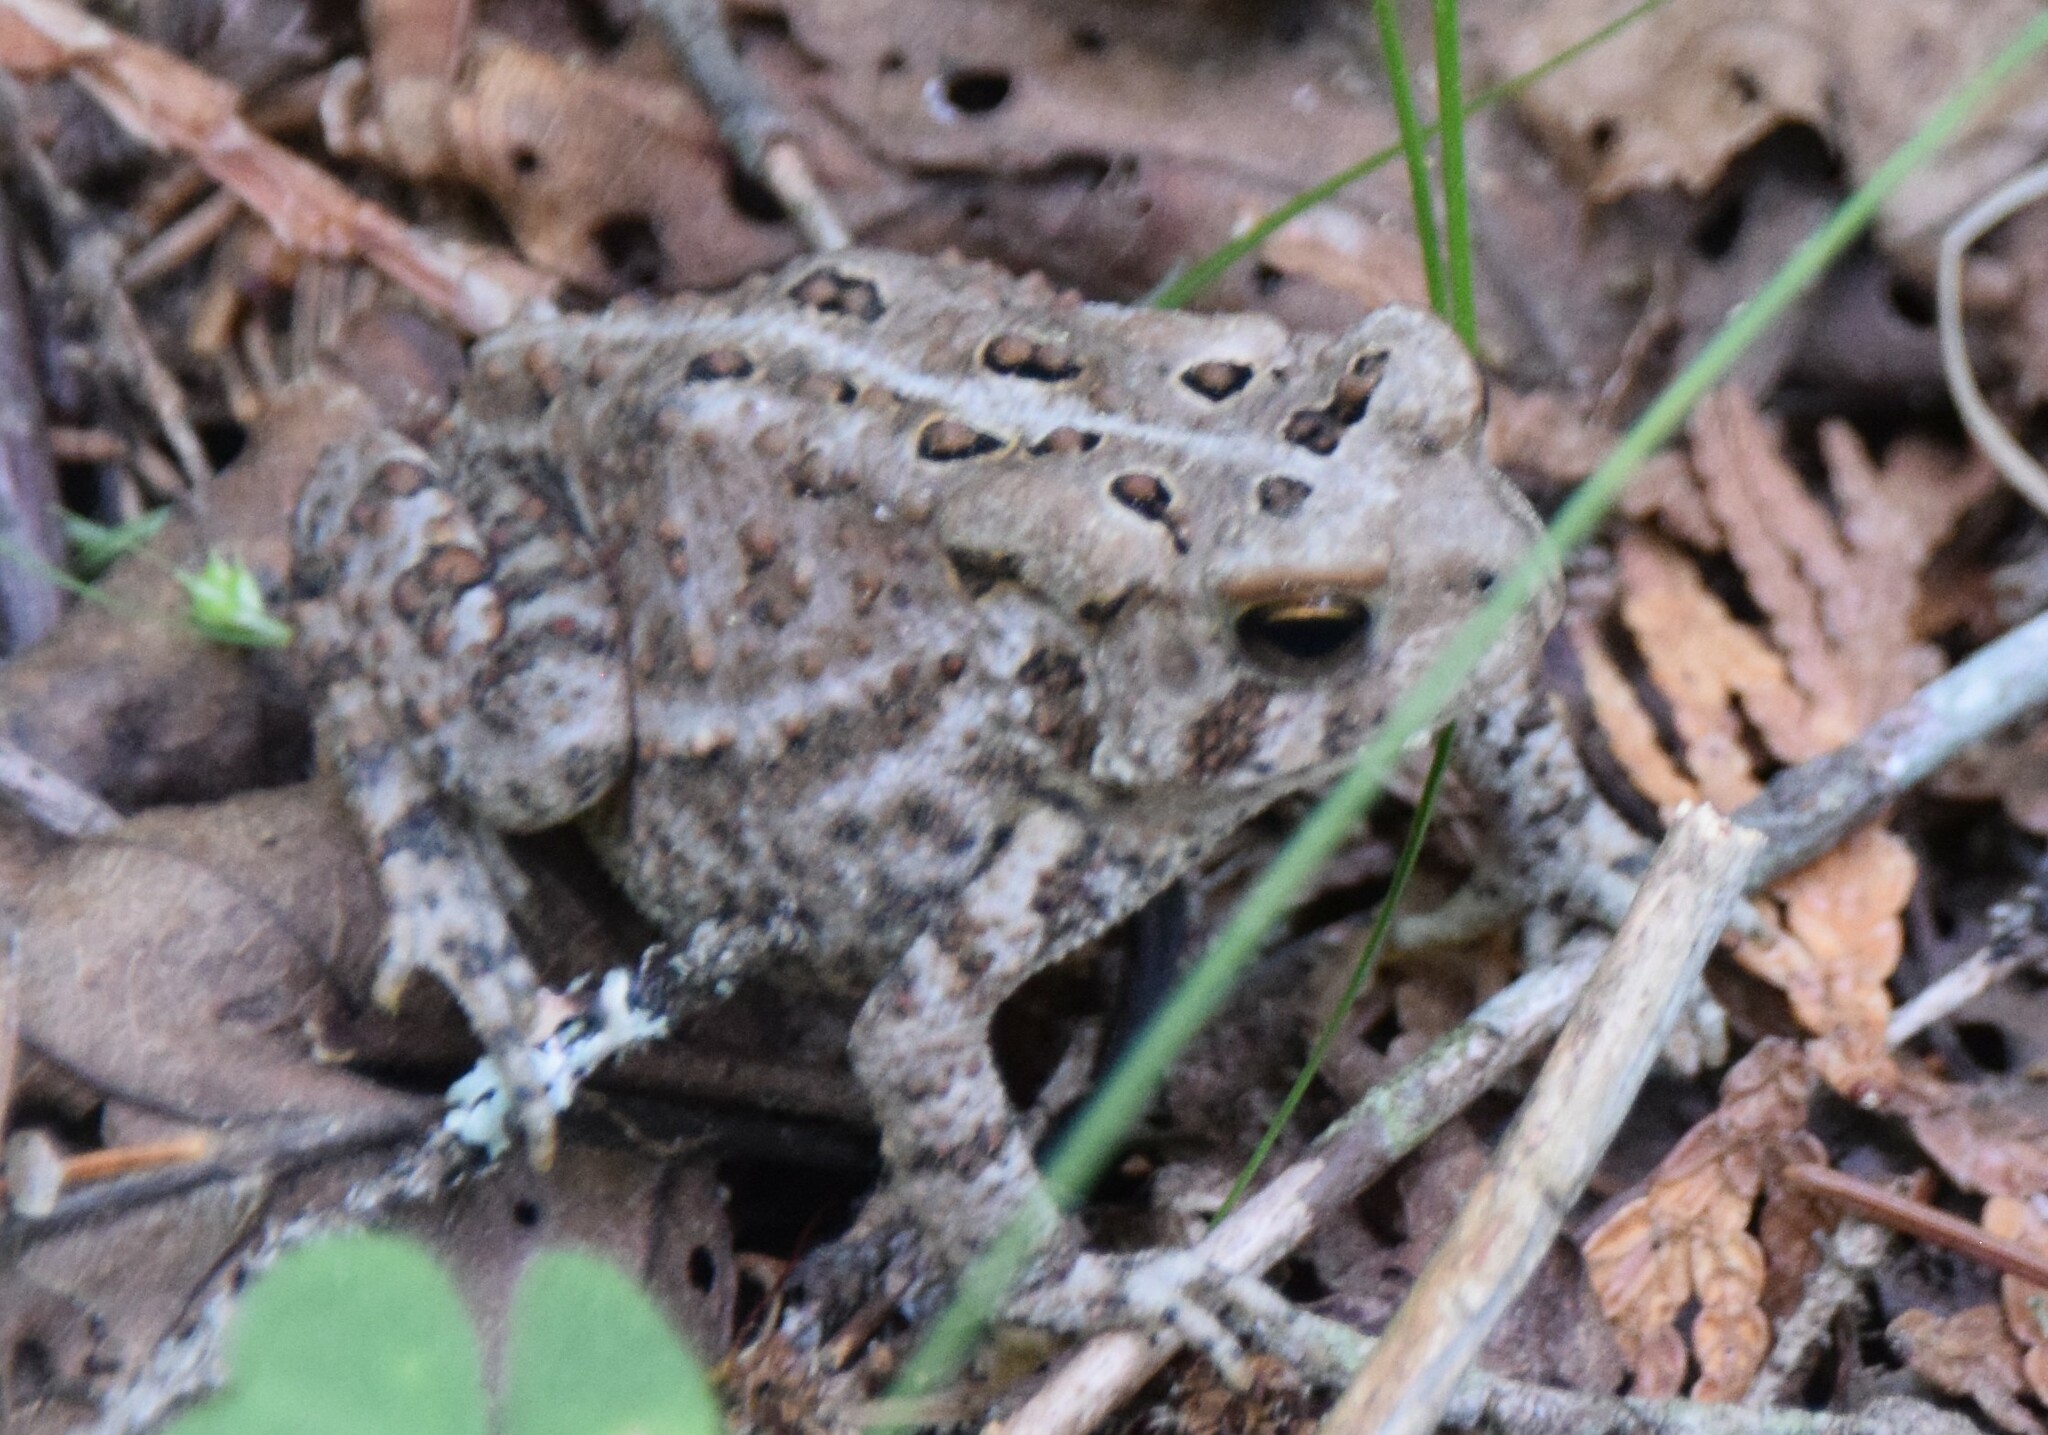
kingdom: Animalia
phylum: Chordata
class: Amphibia
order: Anura
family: Bufonidae
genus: Anaxyrus
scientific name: Anaxyrus americanus
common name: American toad
